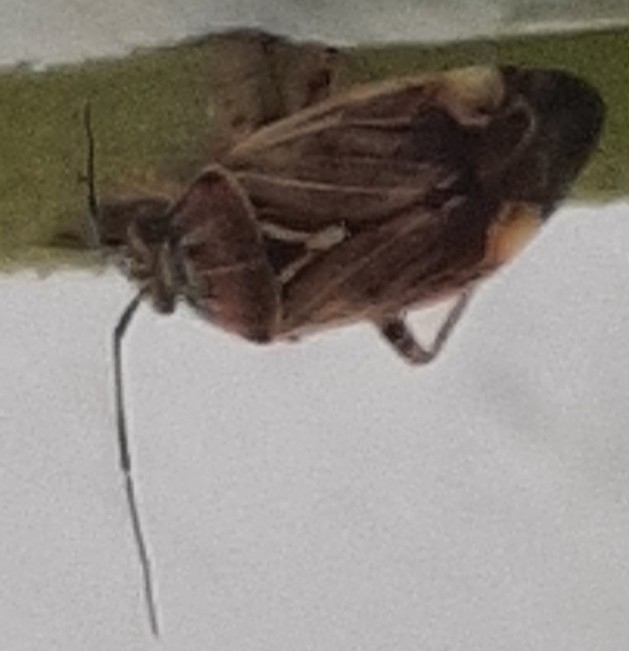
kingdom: Animalia
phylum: Arthropoda
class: Insecta
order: Hemiptera
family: Miridae
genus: Lygus
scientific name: Lygus lineolaris
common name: North american tarnished plant bug
